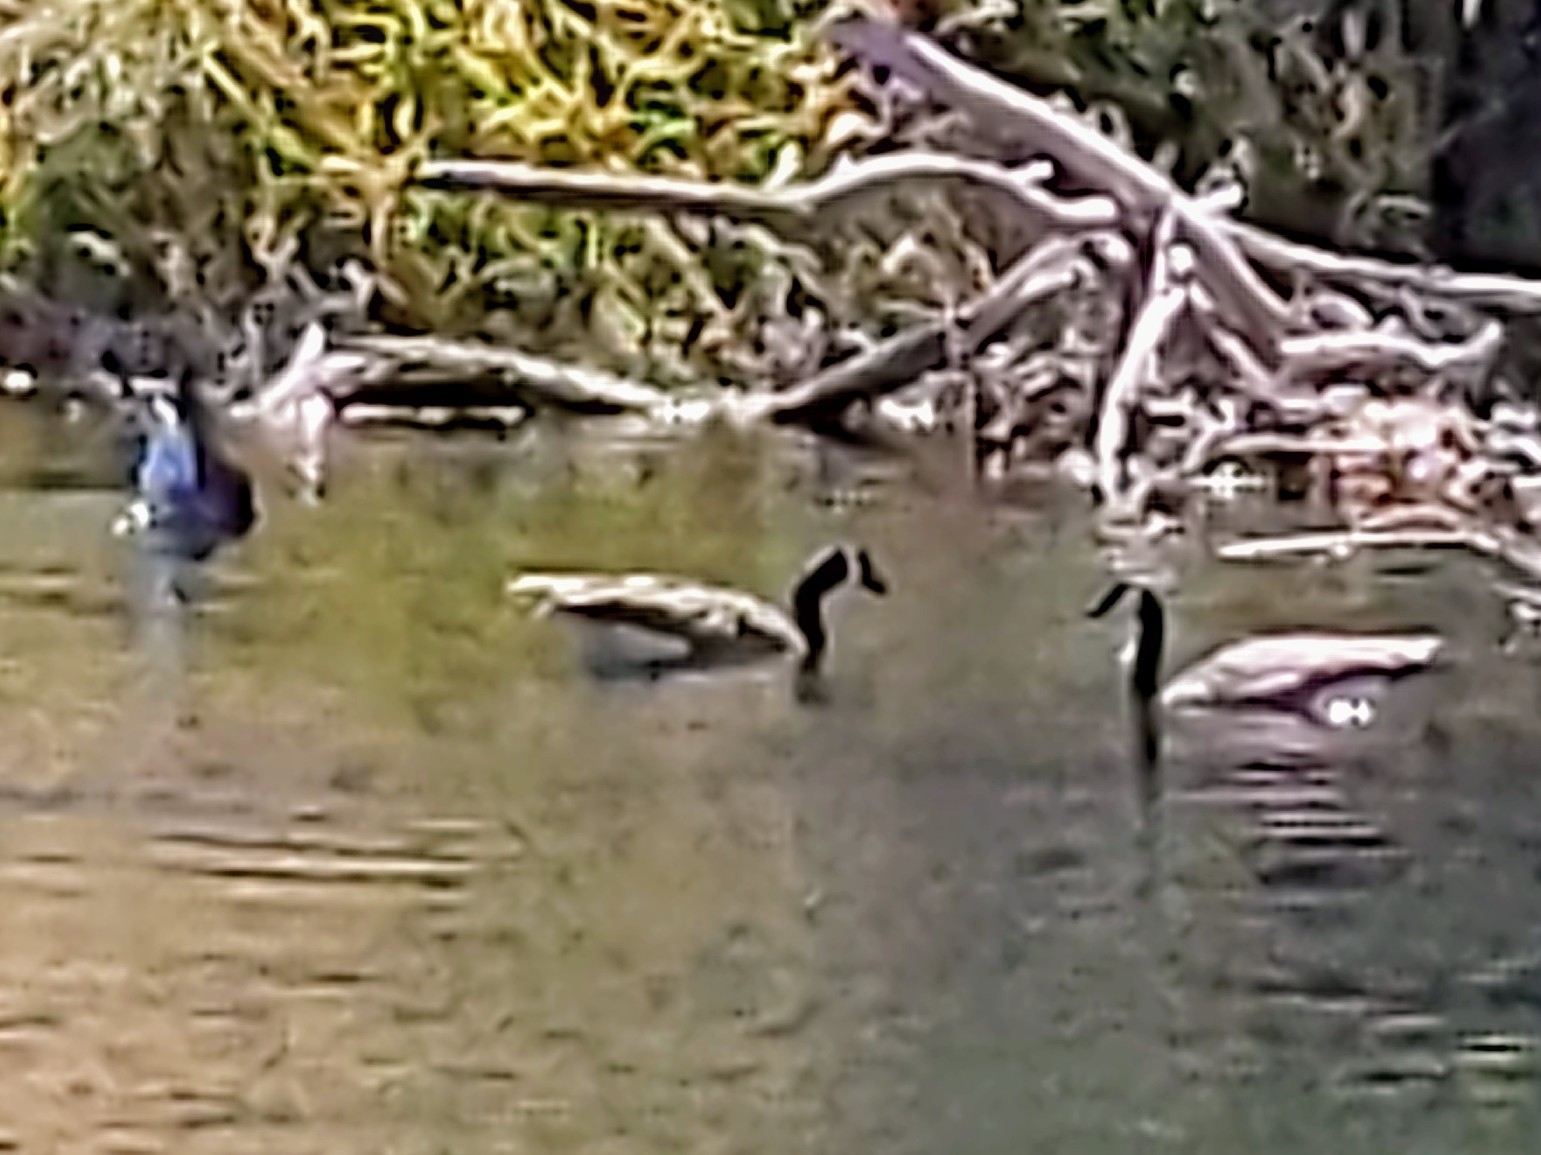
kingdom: Animalia
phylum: Chordata
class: Aves
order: Anseriformes
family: Anatidae
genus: Branta
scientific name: Branta canadensis
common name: Canada goose
